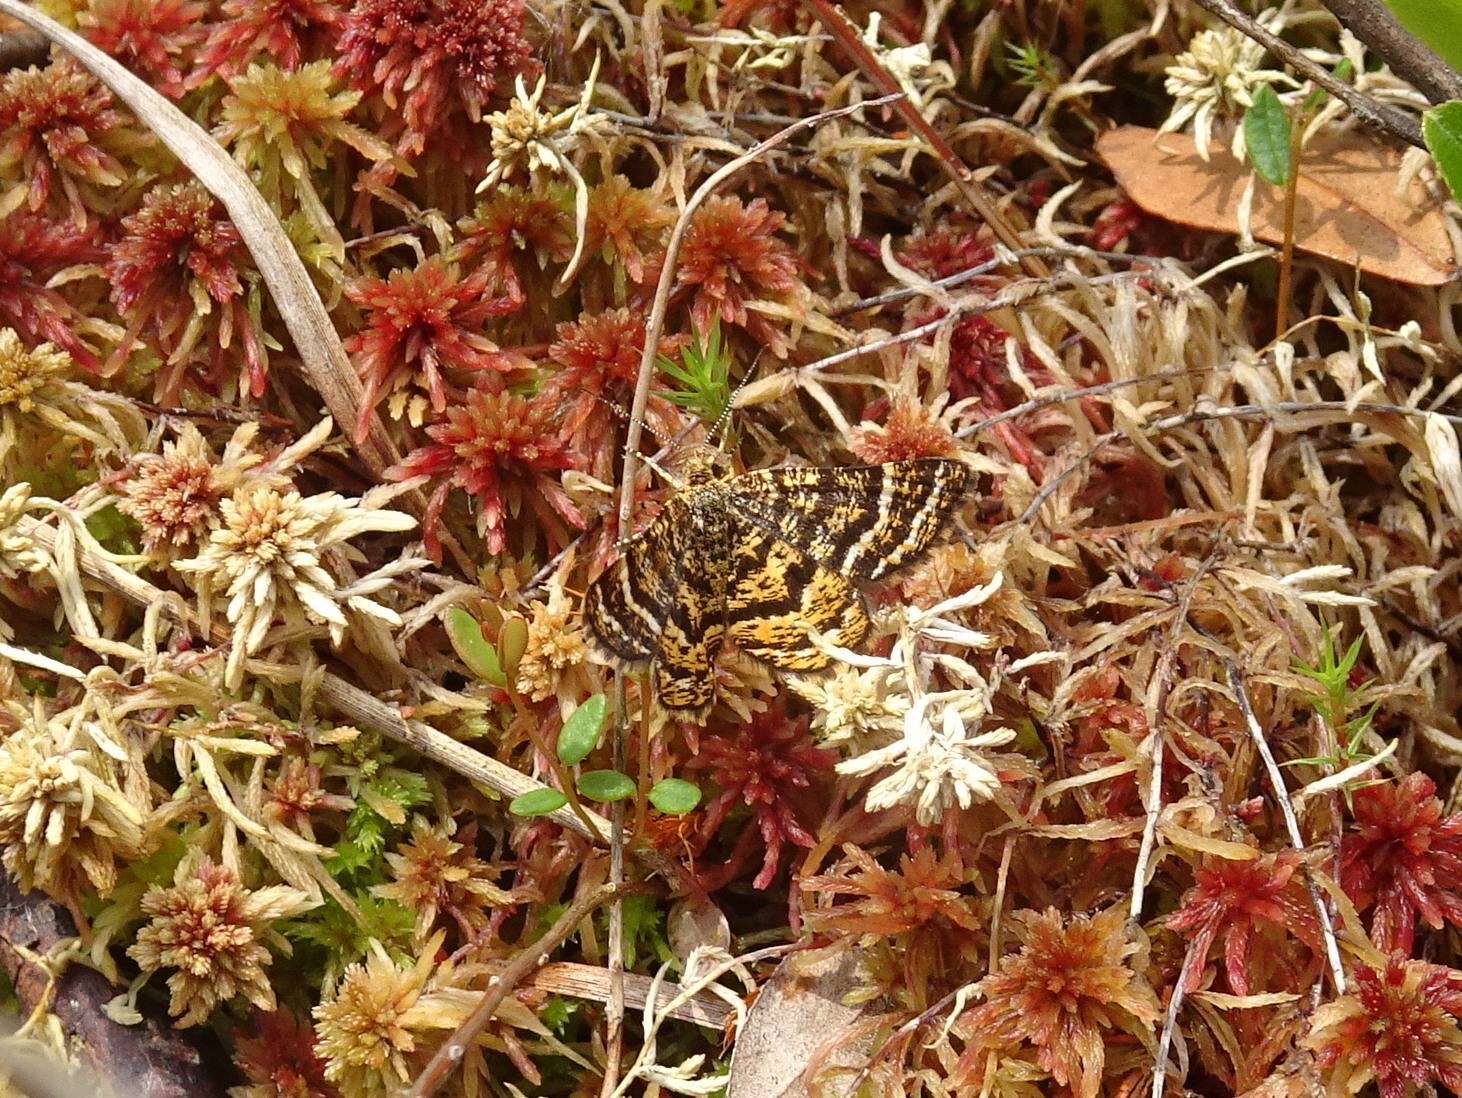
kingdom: Animalia
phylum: Arthropoda
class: Insecta
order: Lepidoptera
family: Geometridae
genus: Macaria
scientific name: Macaria truncataria
